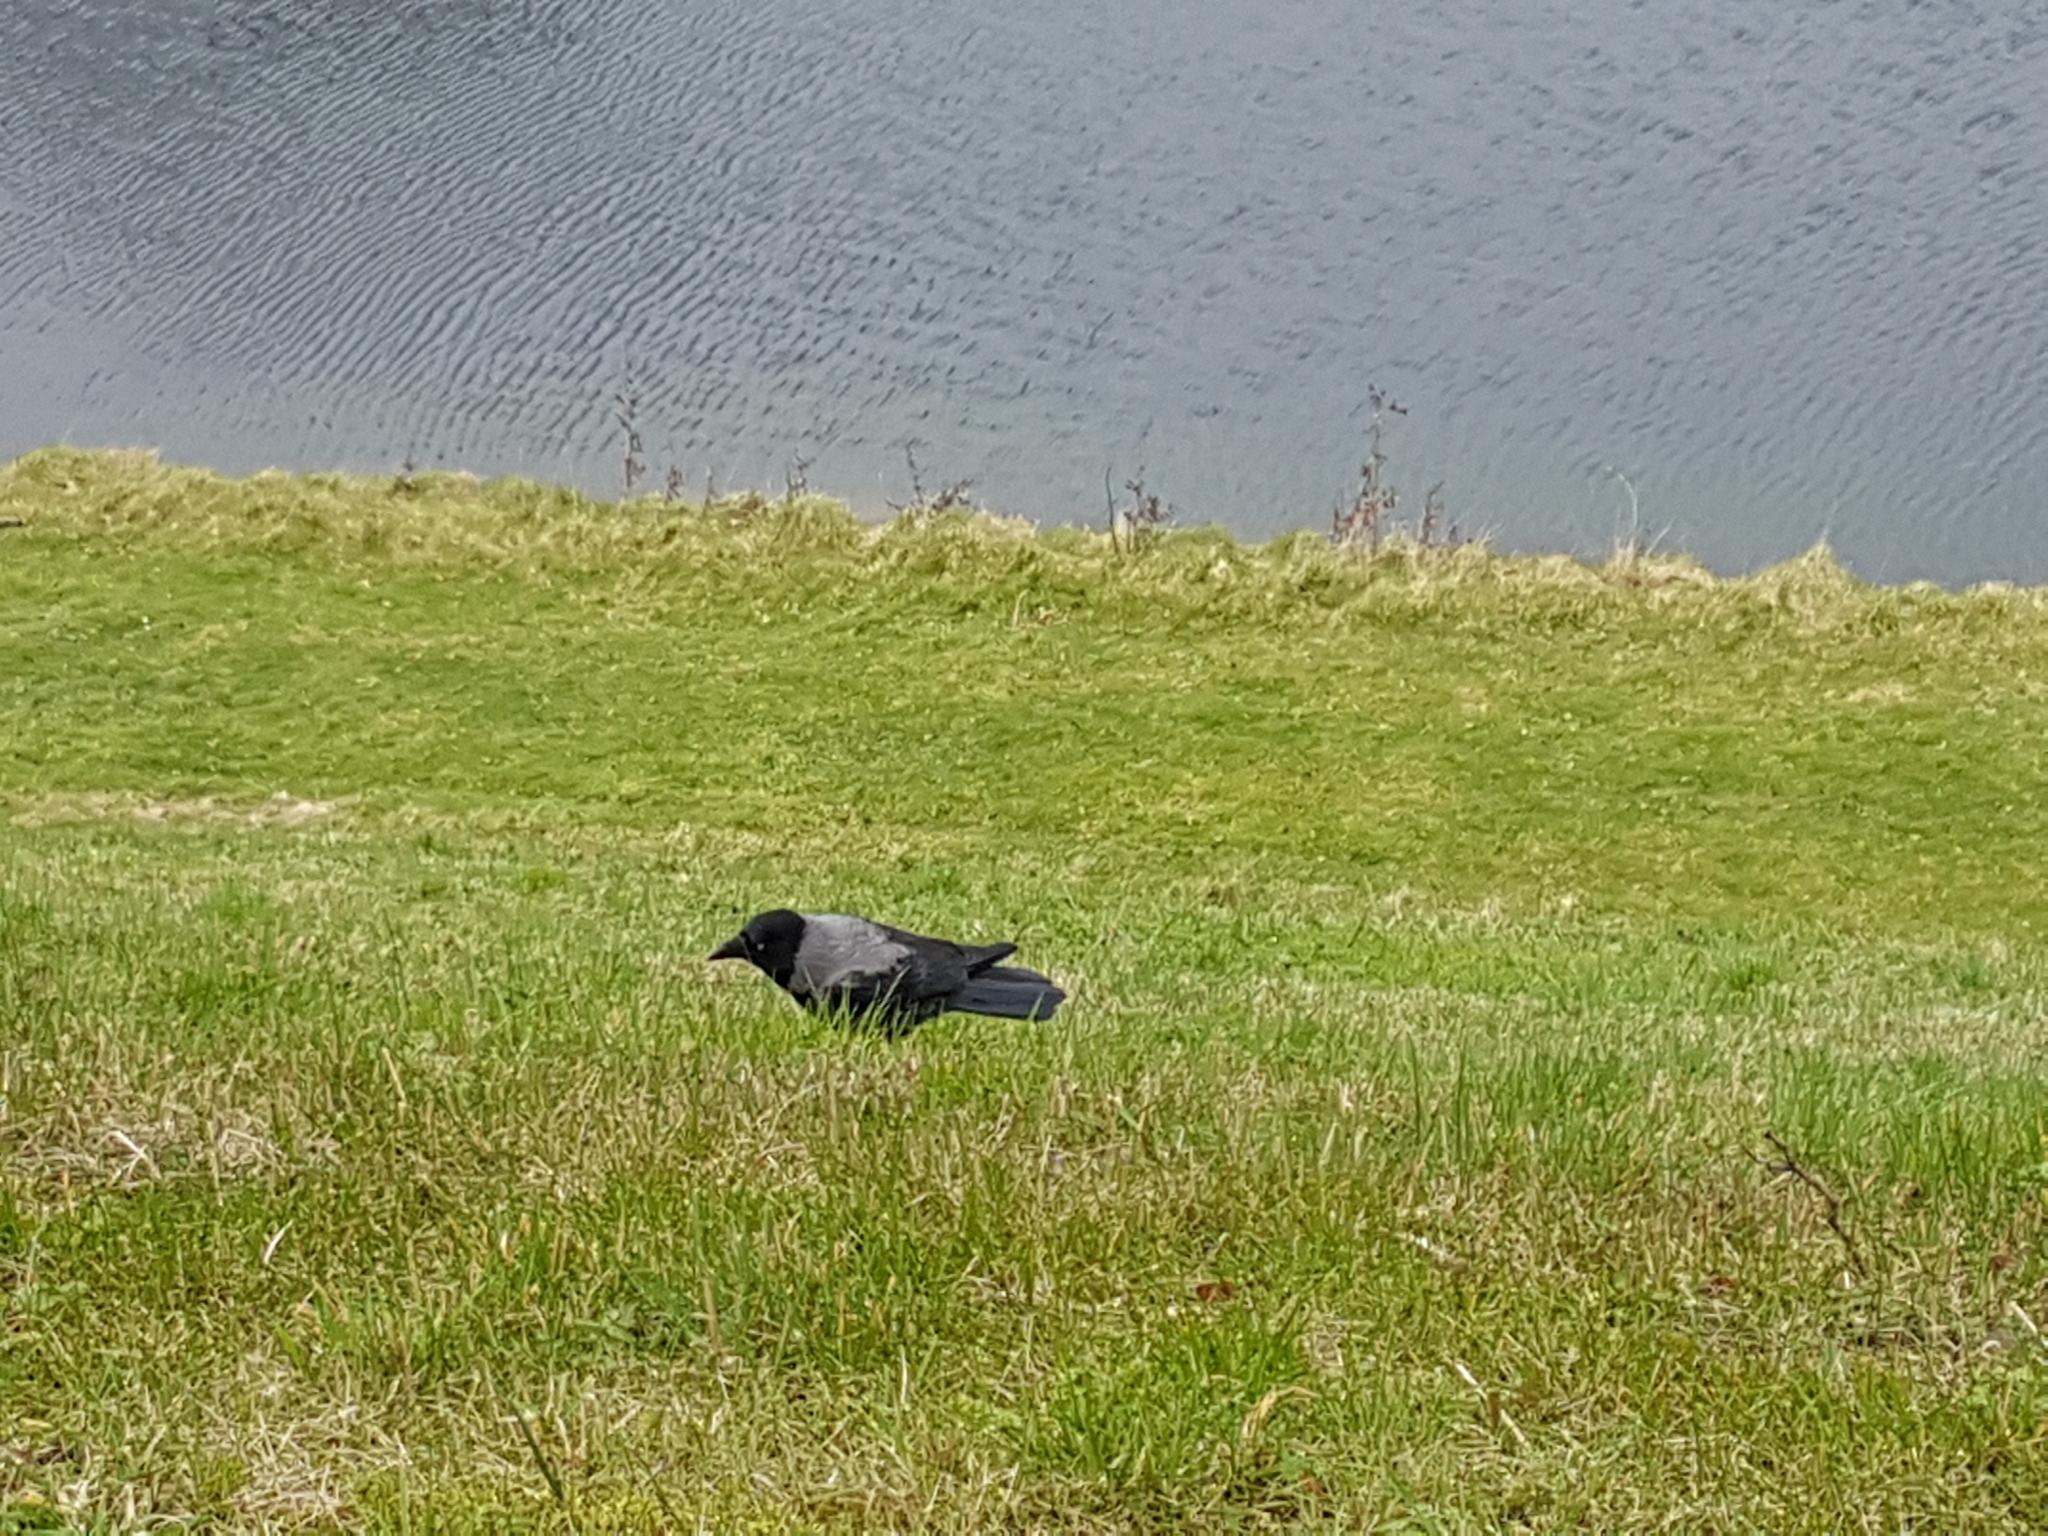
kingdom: Animalia
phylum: Chordata
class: Aves
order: Passeriformes
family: Corvidae
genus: Corvus
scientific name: Corvus cornix
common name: Hooded crow
